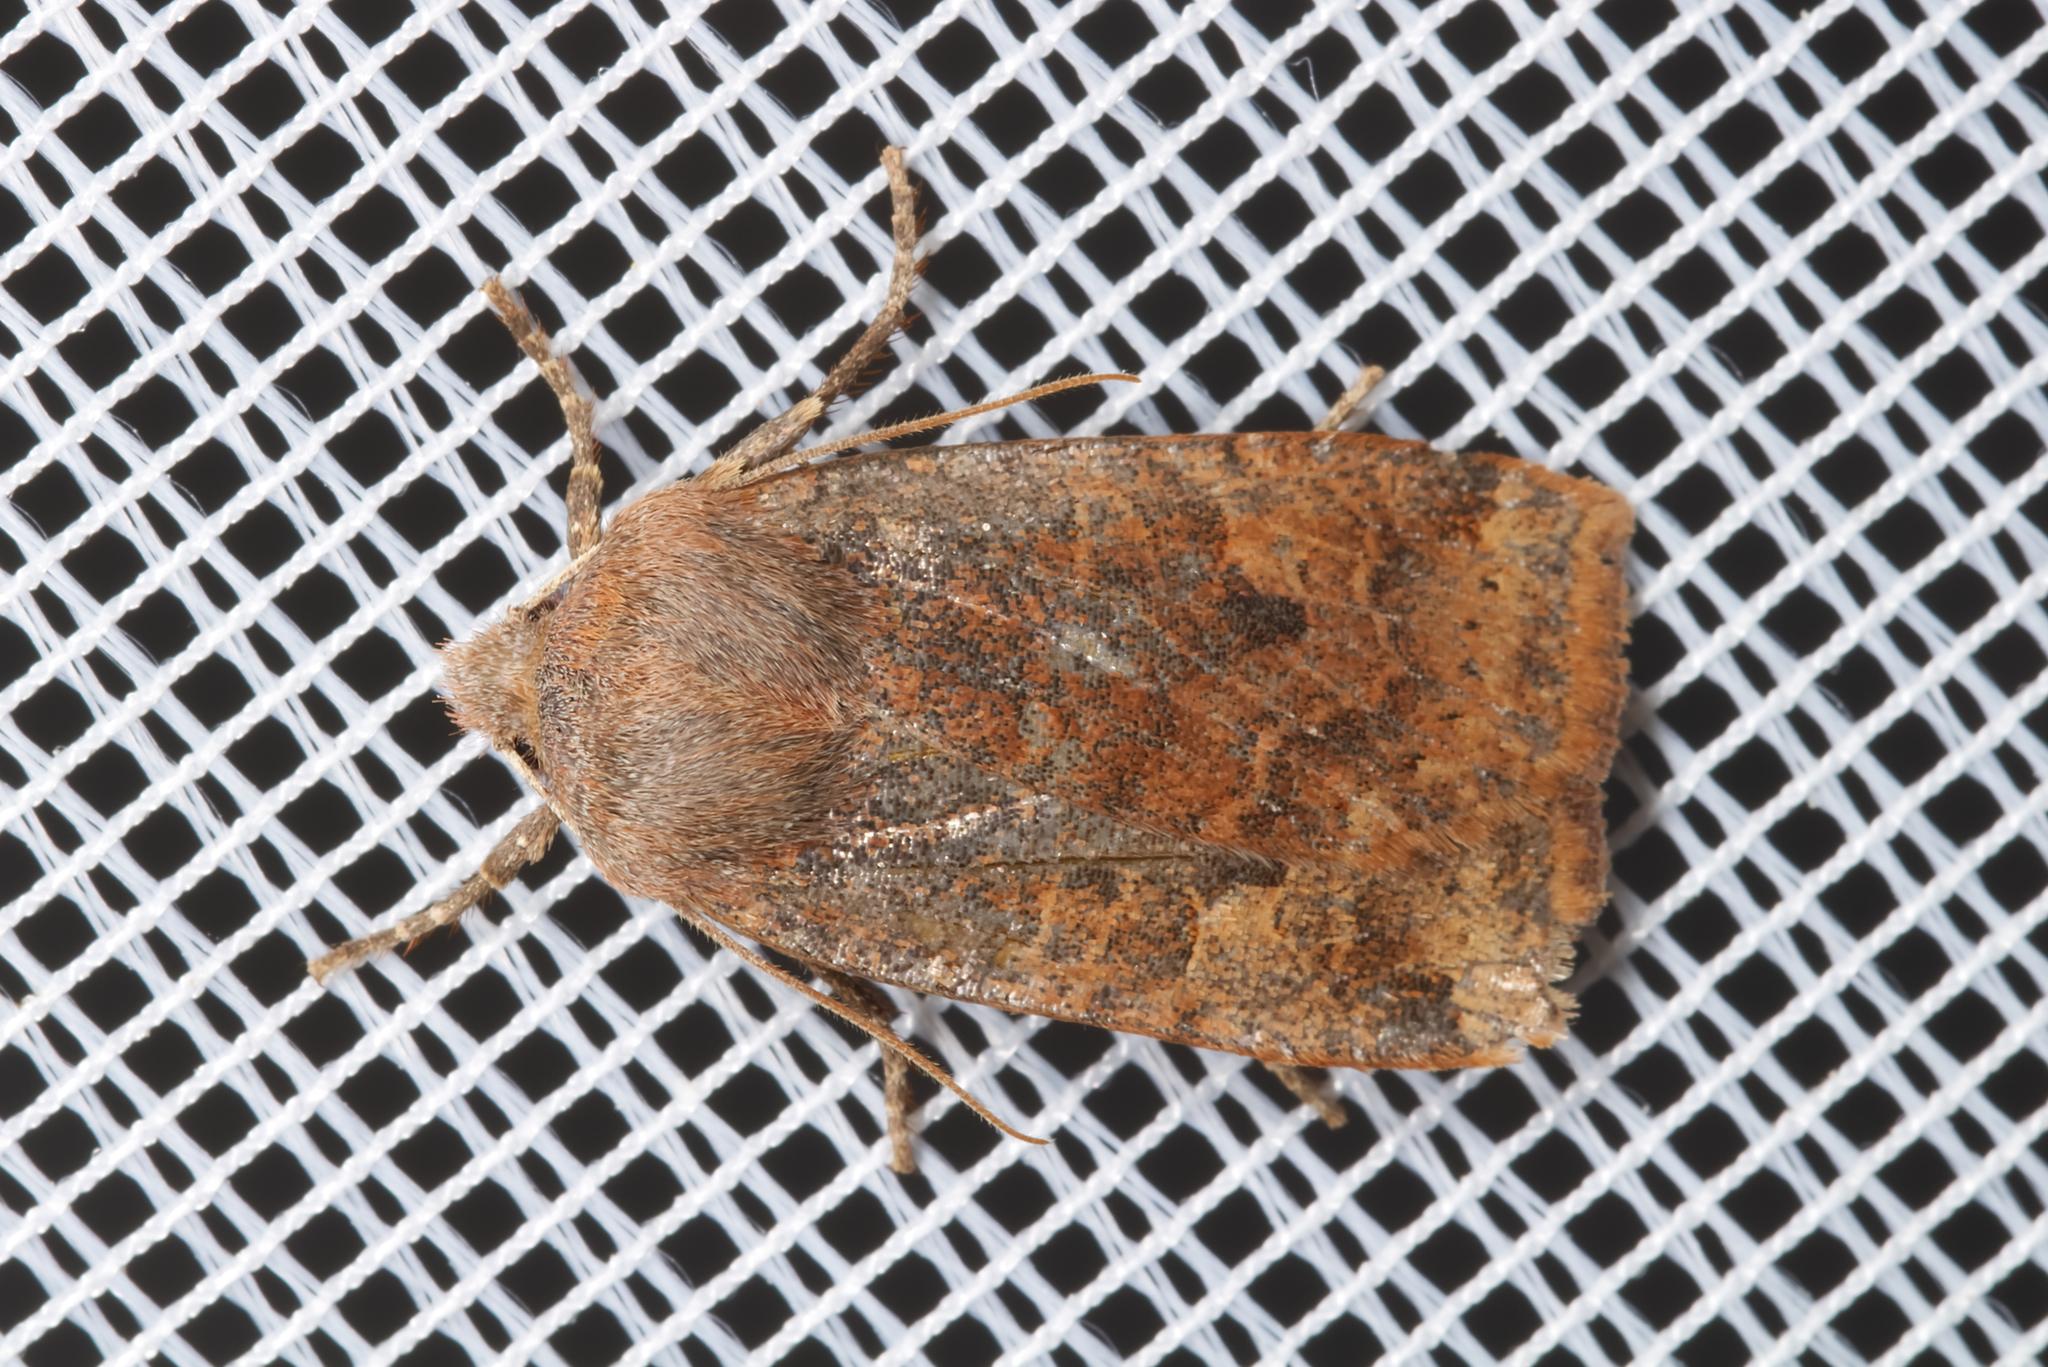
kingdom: Animalia
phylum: Arthropoda
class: Insecta
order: Lepidoptera
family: Noctuidae
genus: Conistra
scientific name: Conistra ligula
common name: Dark chestnut
